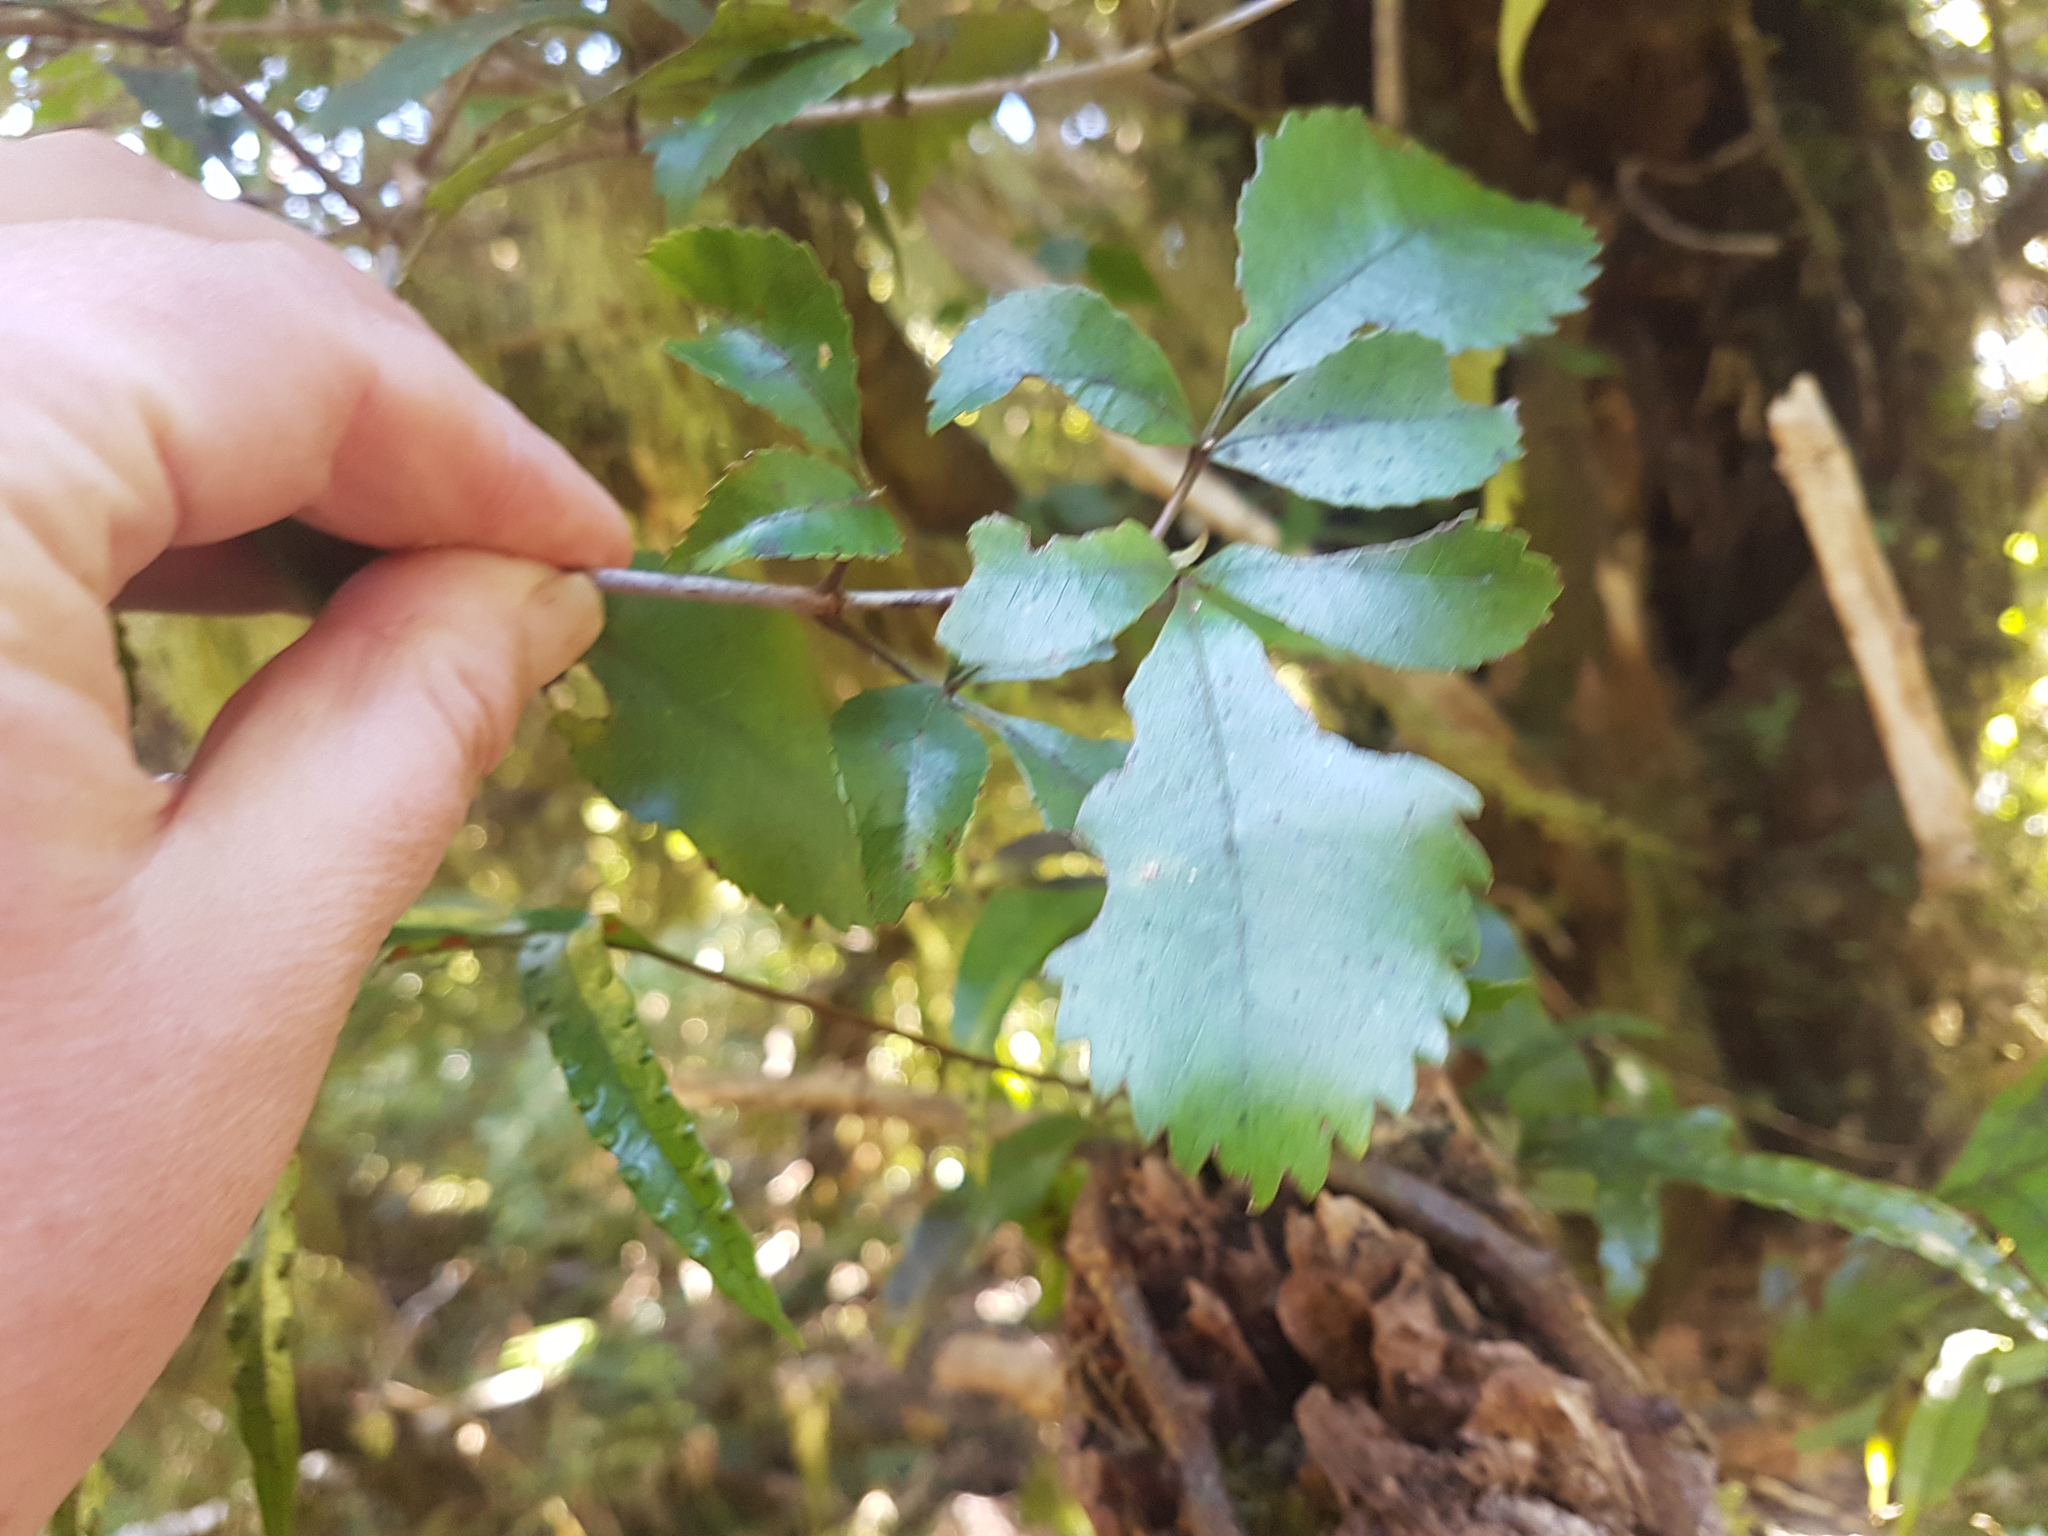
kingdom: Plantae
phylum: Tracheophyta
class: Magnoliopsida
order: Oxalidales
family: Cunoniaceae
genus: Pterophylla
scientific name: Pterophylla racemosa
